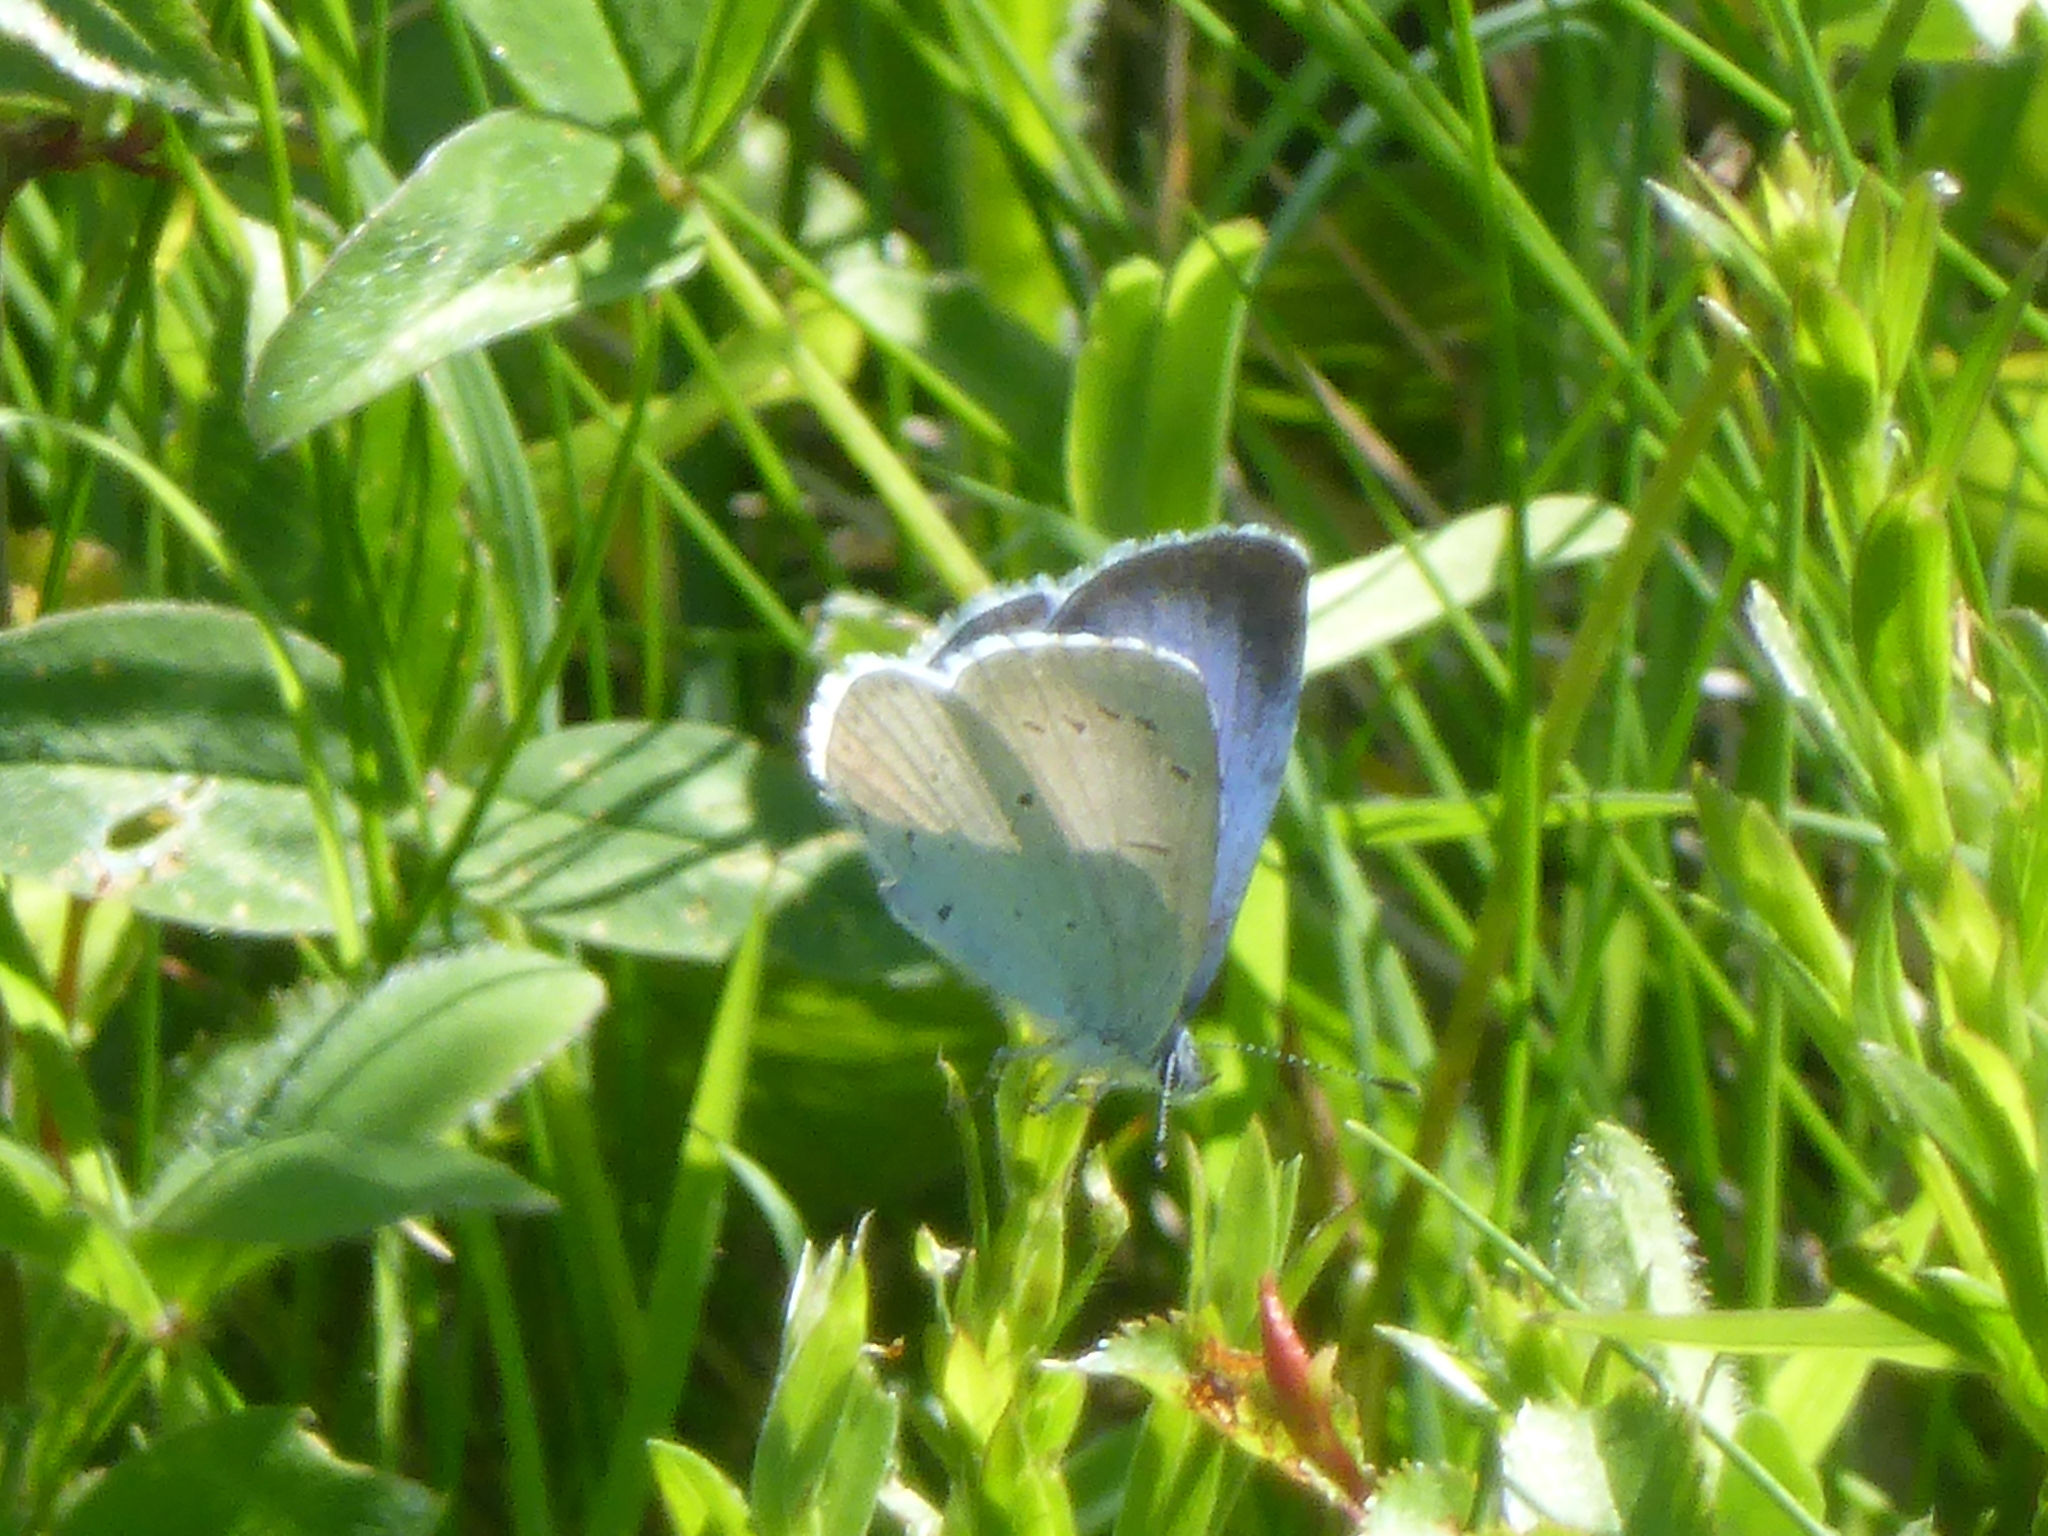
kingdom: Animalia
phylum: Arthropoda
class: Insecta
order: Lepidoptera
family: Lycaenidae
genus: Celastrina
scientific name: Celastrina argiolus
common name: Holly blue
